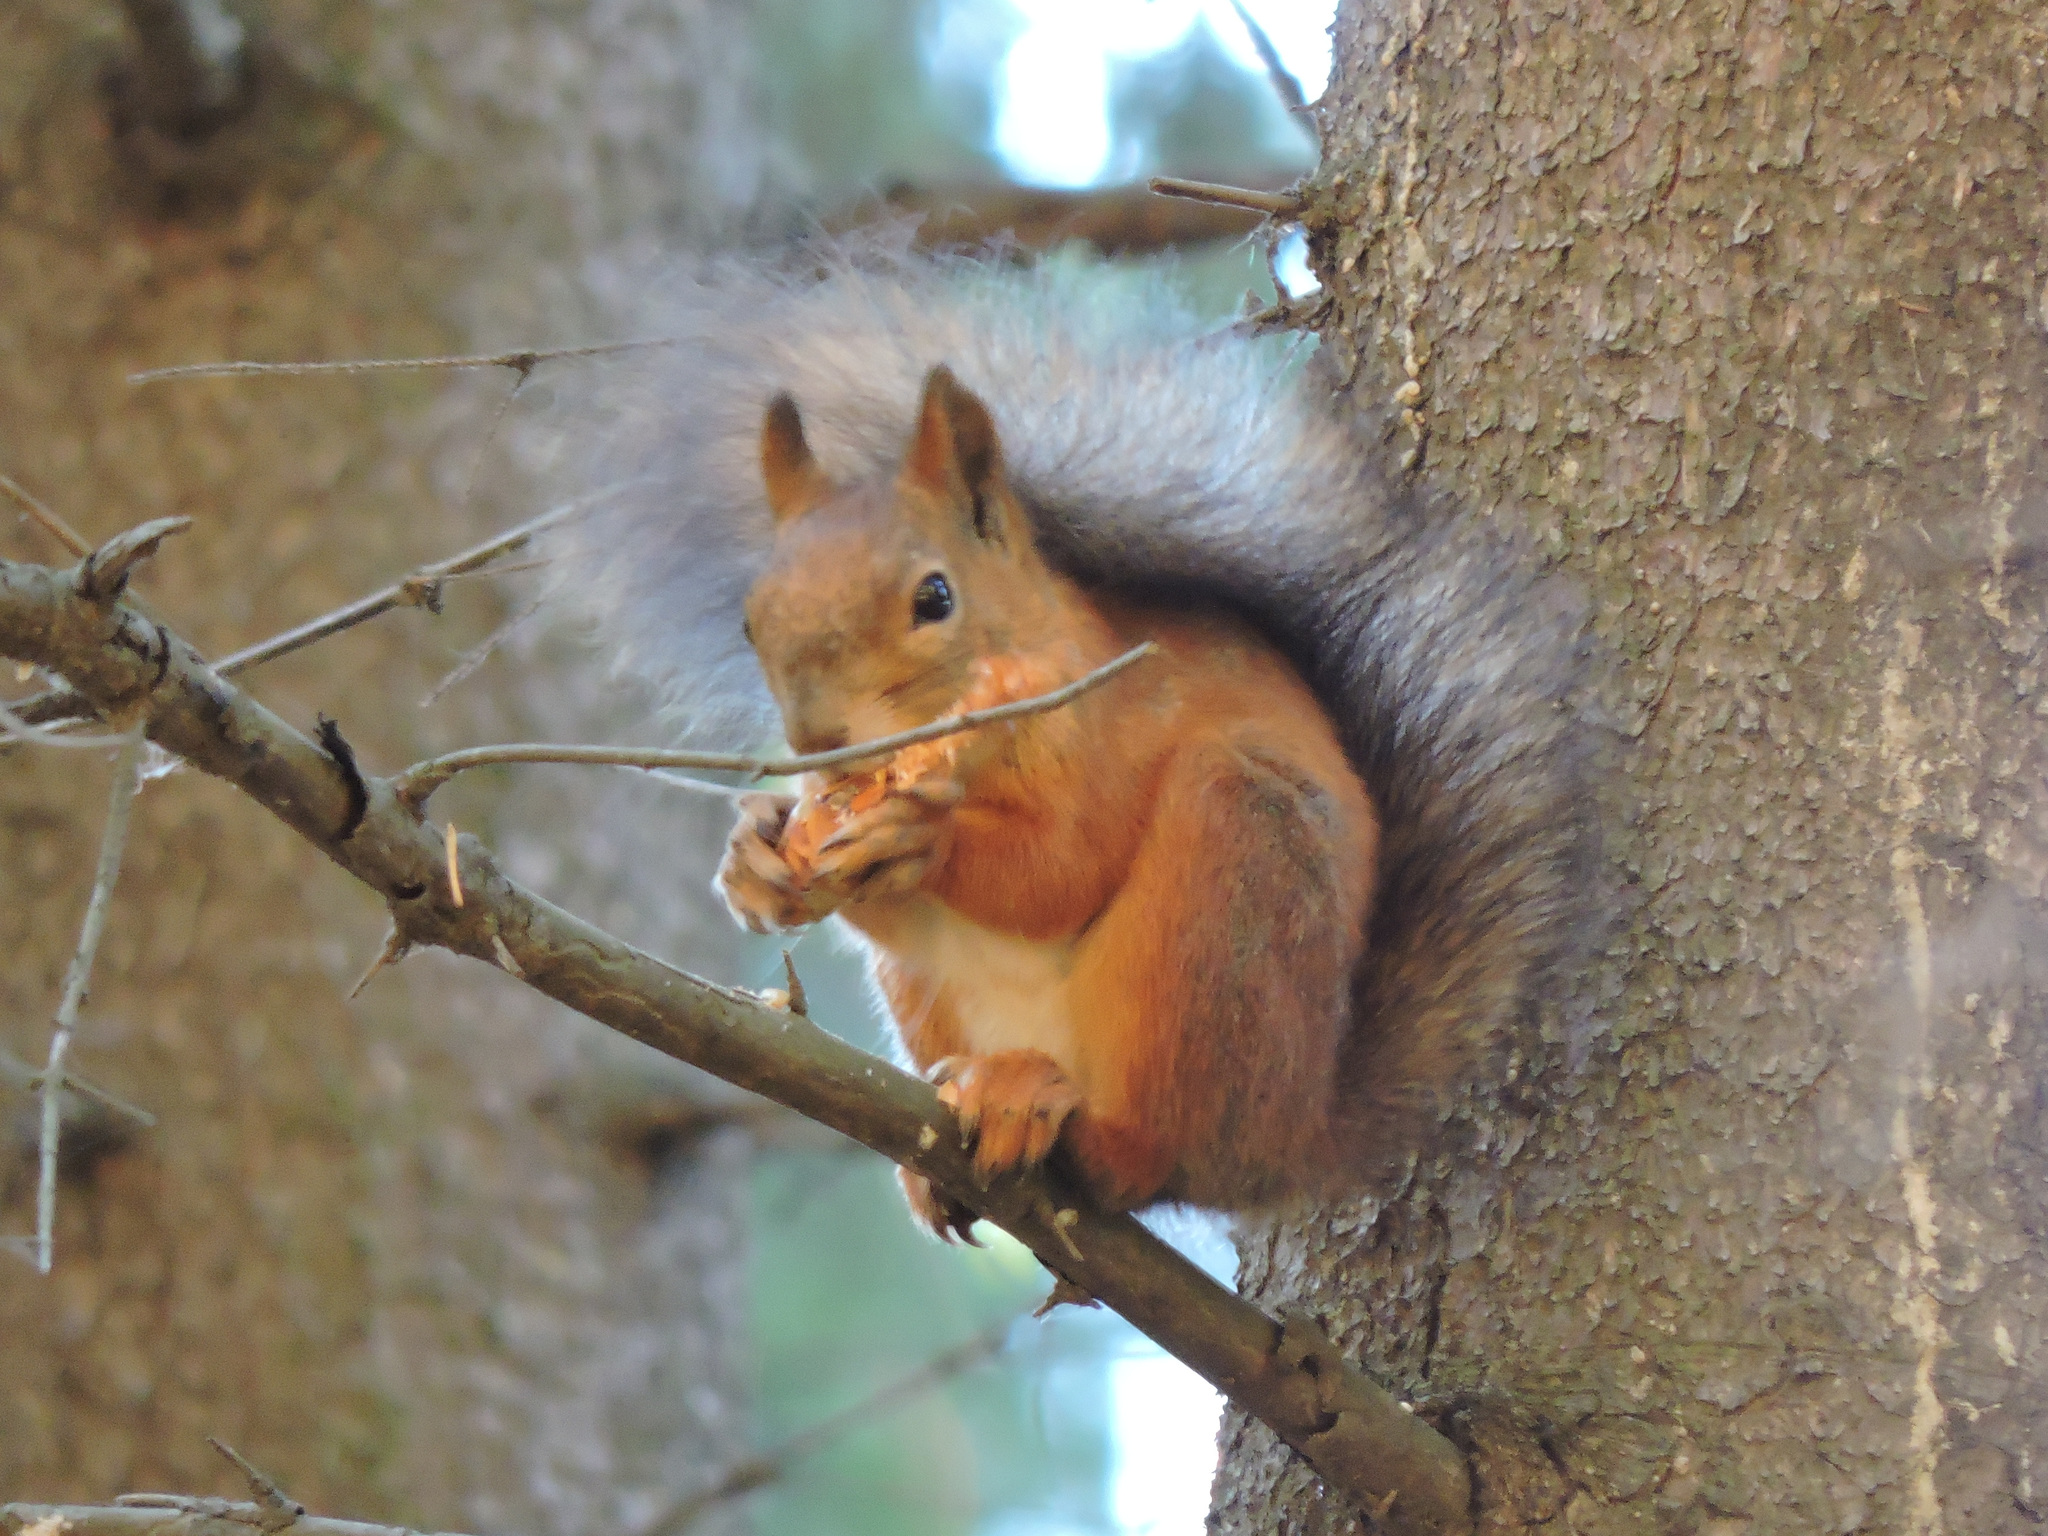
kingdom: Animalia
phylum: Chordata
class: Mammalia
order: Rodentia
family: Sciuridae
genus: Sciurus
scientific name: Sciurus vulgaris
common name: Eurasian red squirrel
